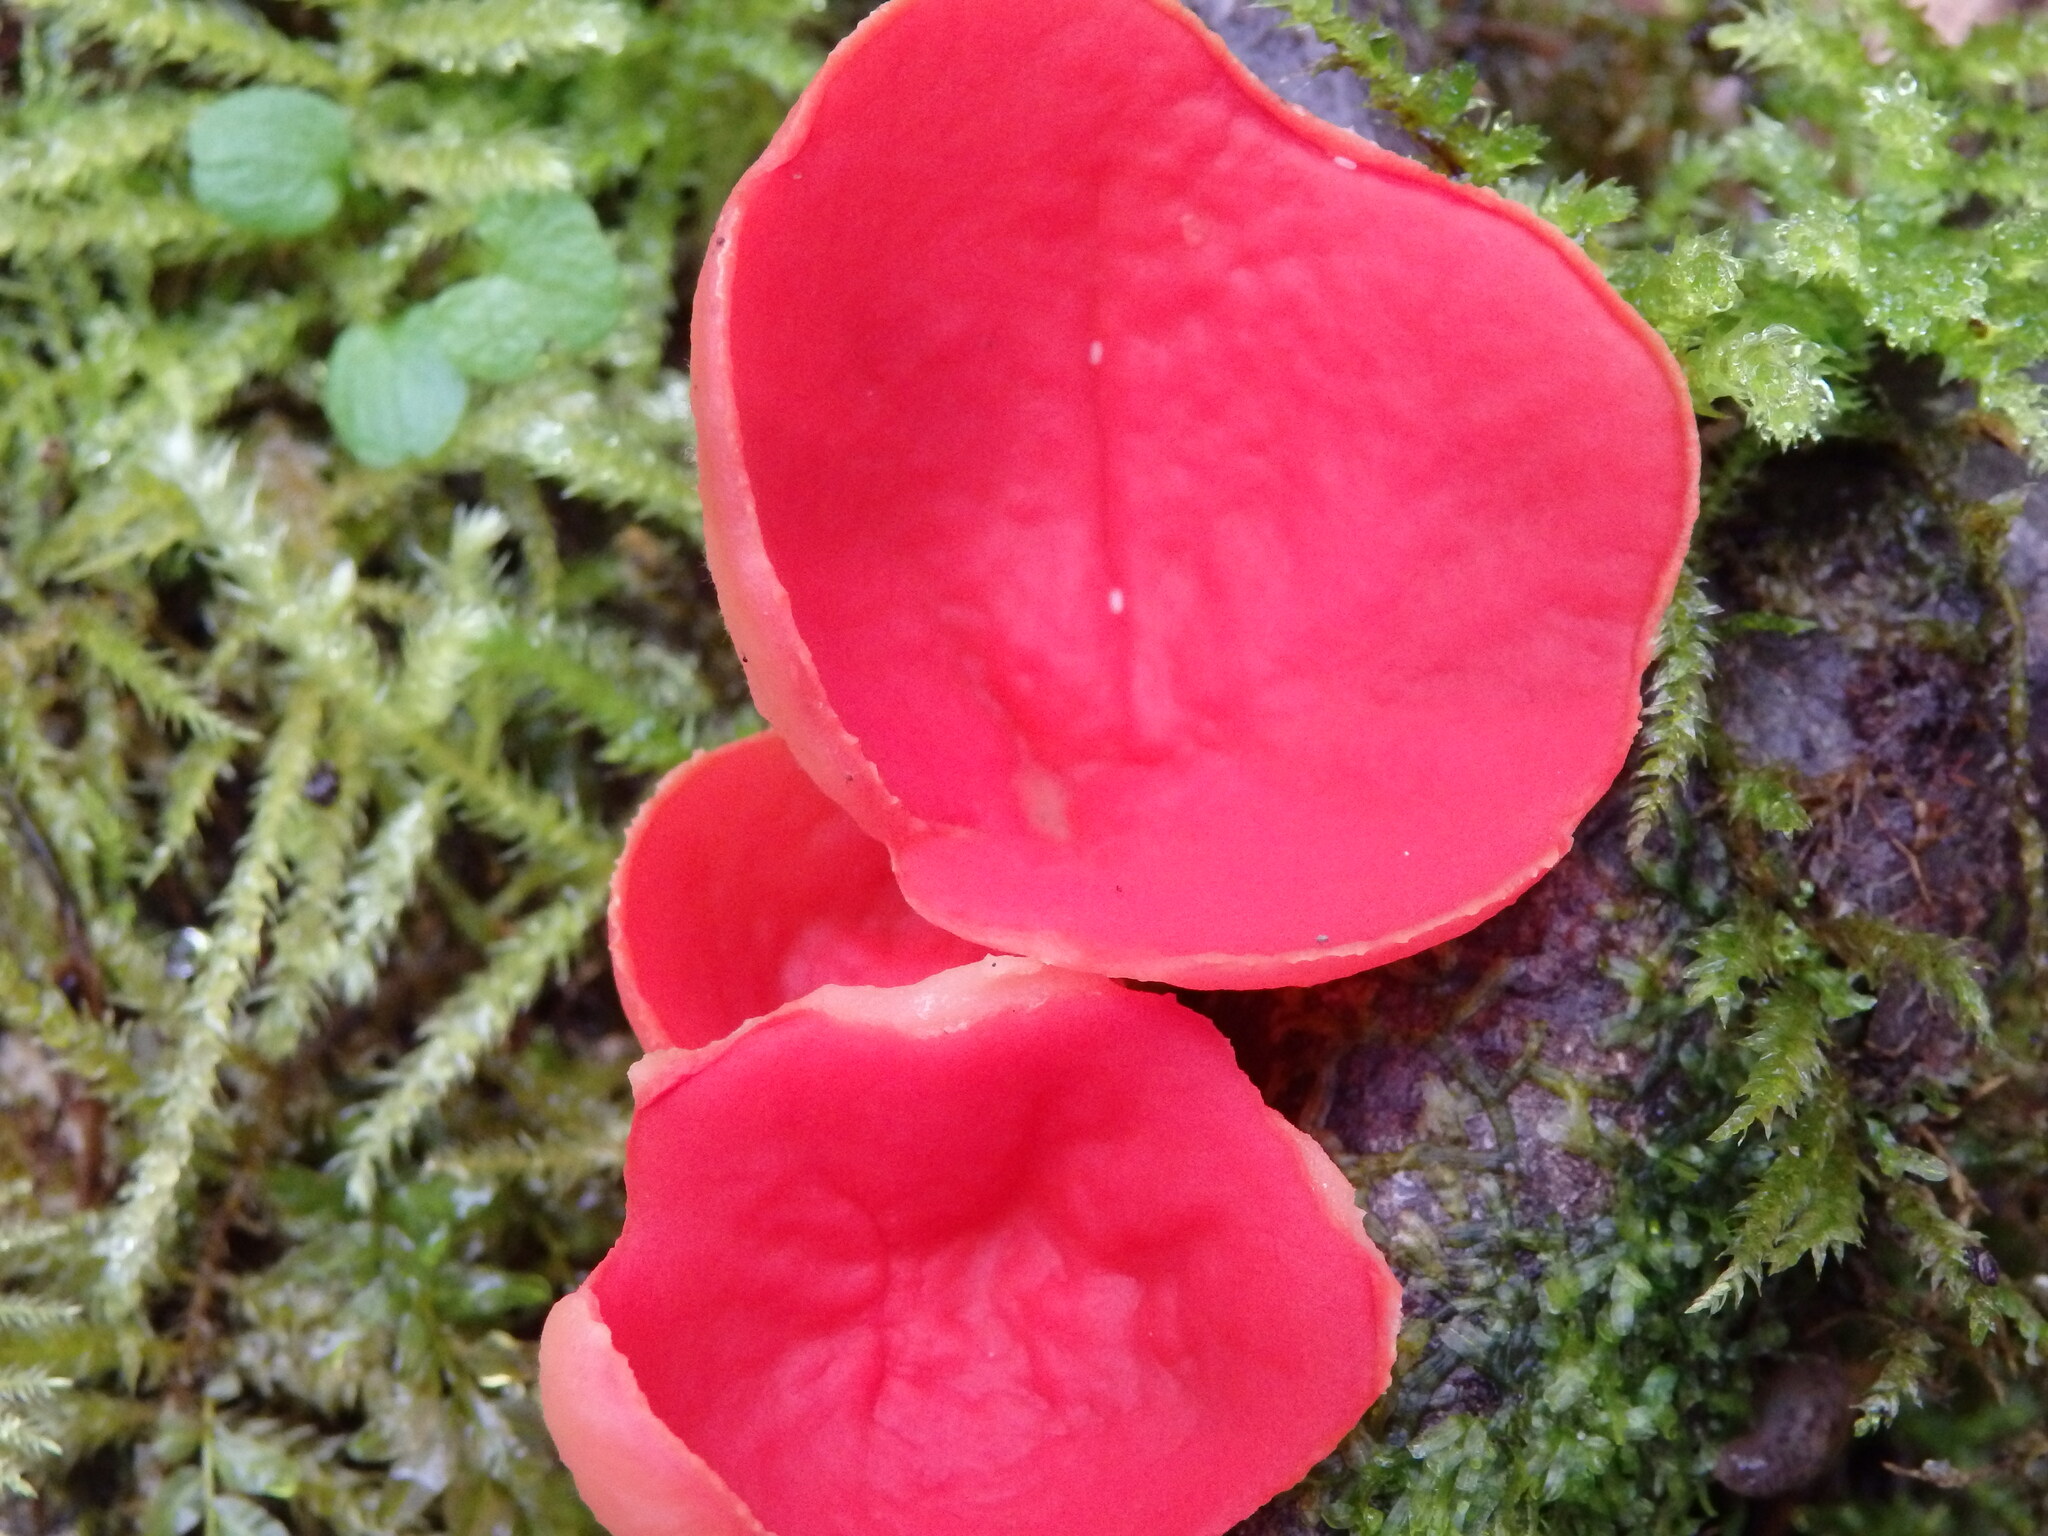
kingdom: Fungi
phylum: Ascomycota
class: Pezizomycetes
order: Pezizales
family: Sarcoscyphaceae
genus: Sarcoscypha
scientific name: Sarcoscypha
